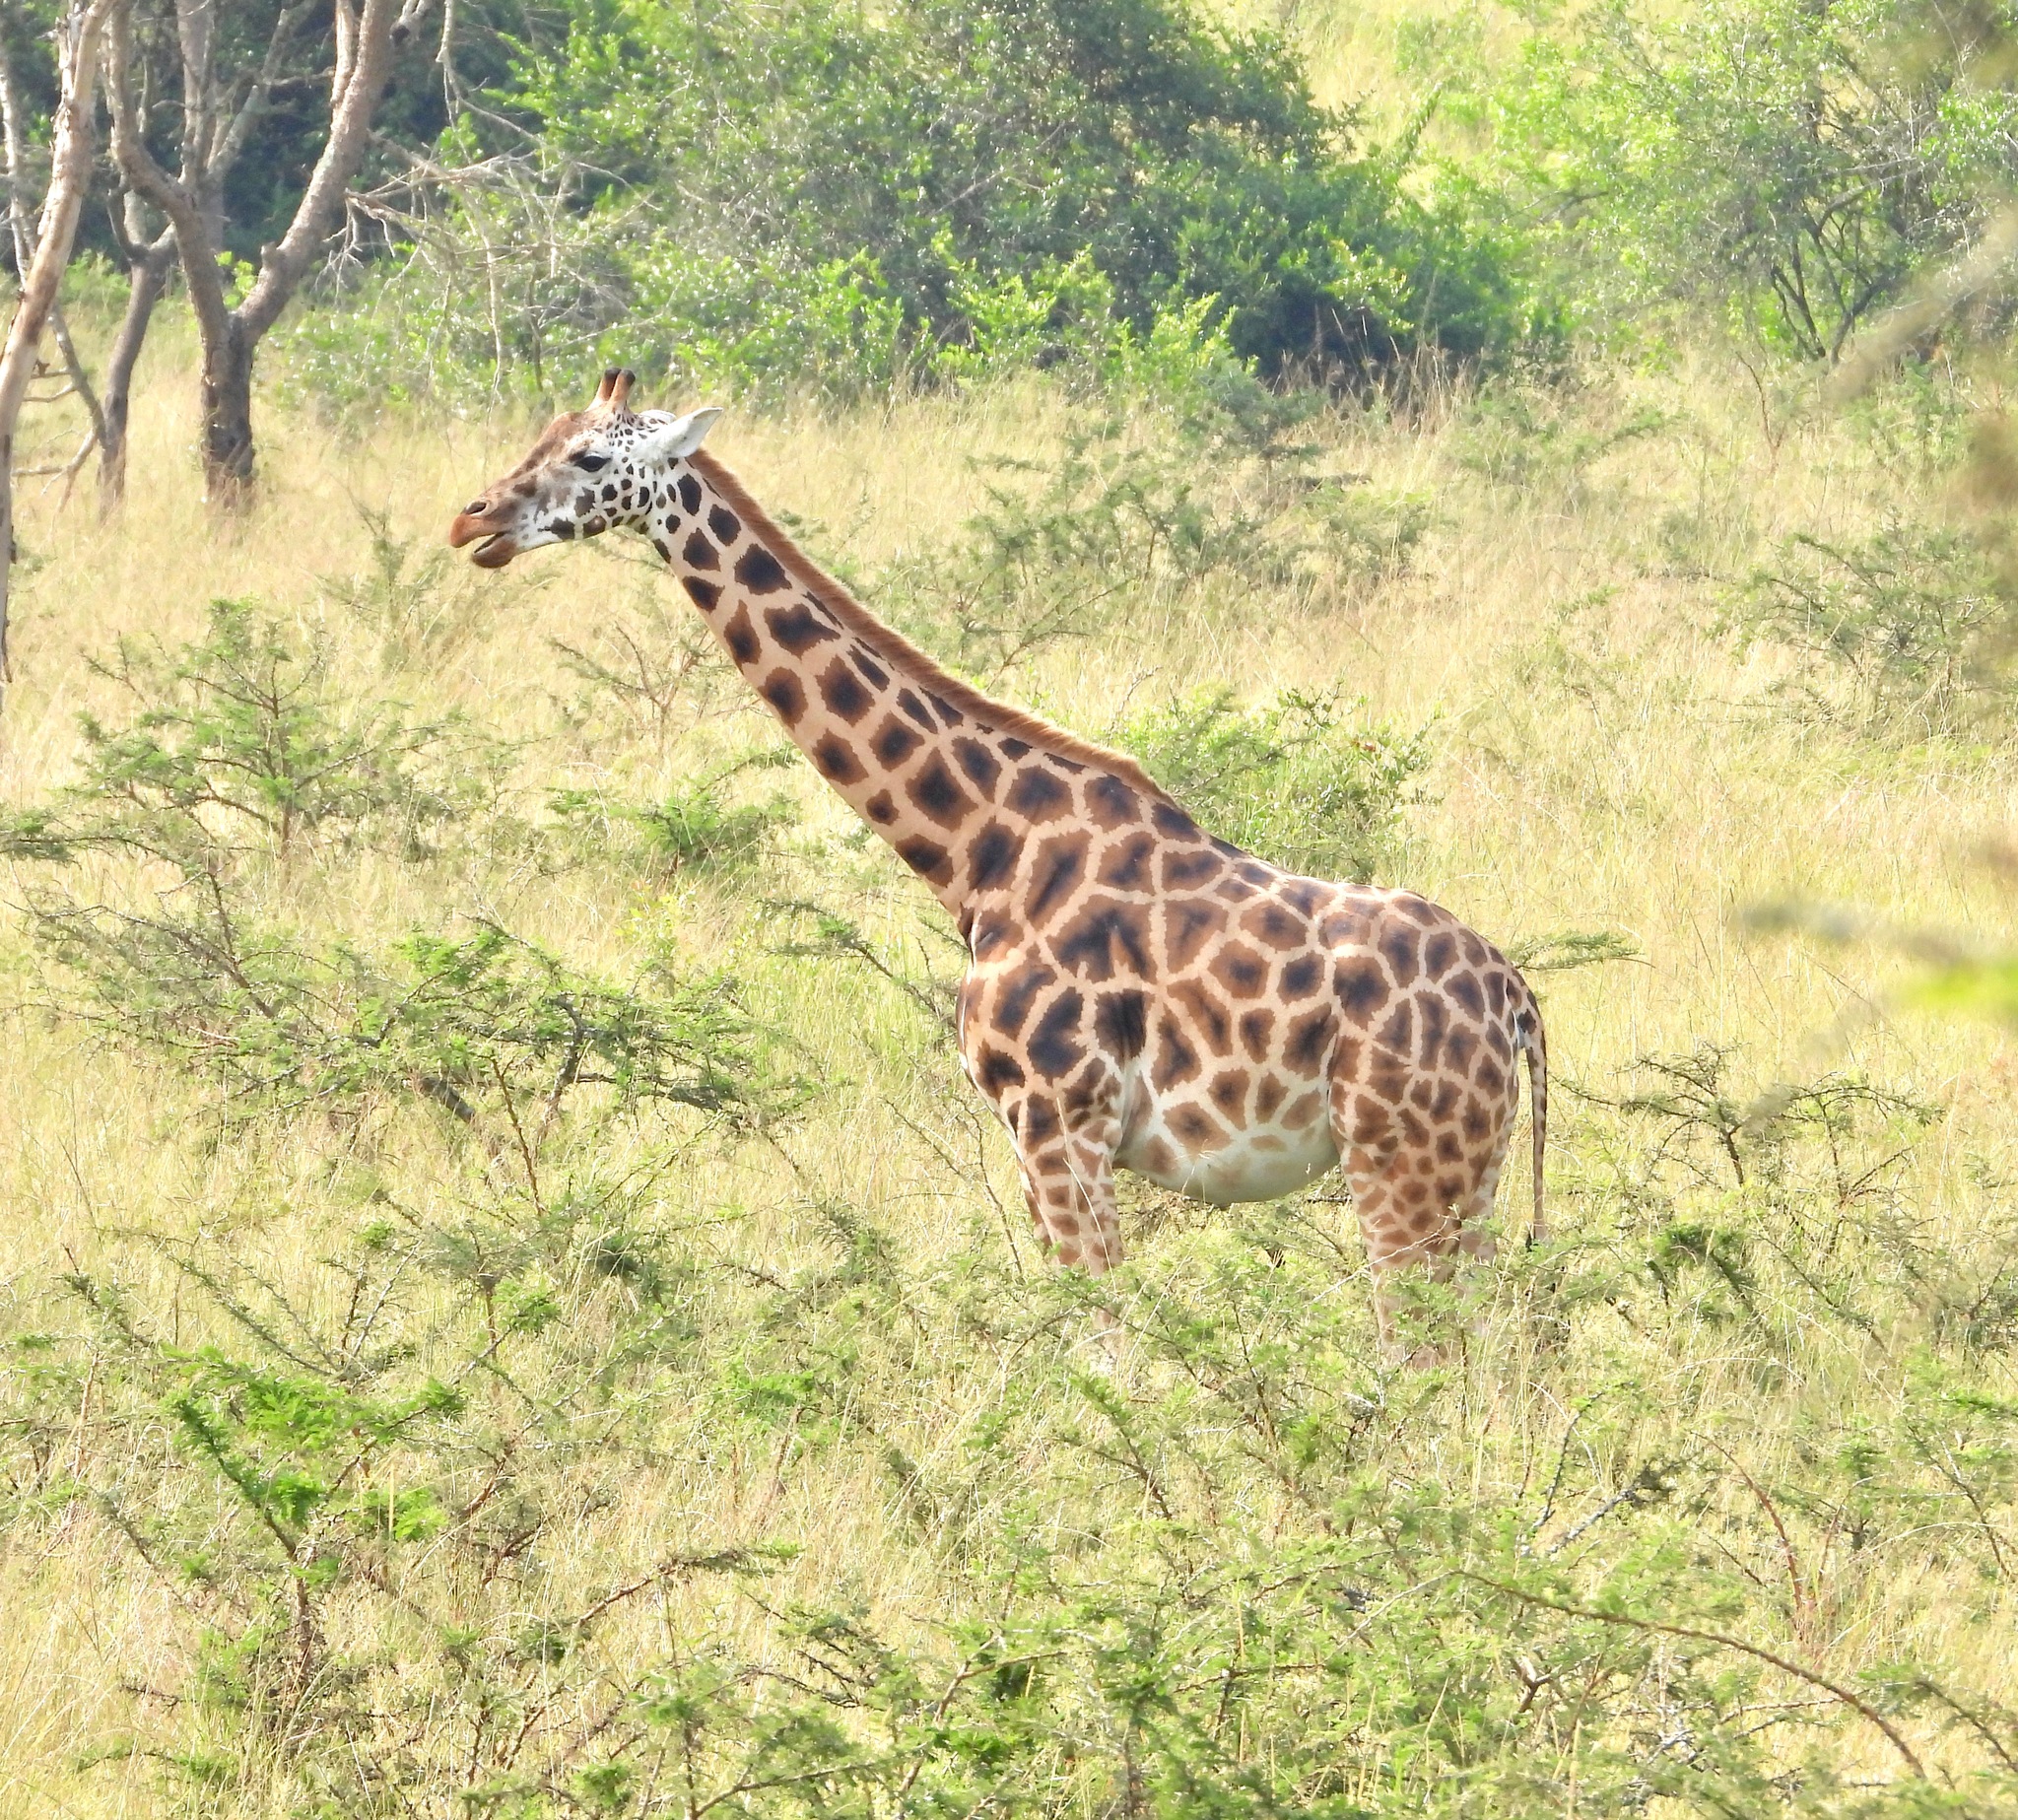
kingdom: Animalia
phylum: Chordata
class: Mammalia
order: Artiodactyla
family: Giraffidae
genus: Giraffa
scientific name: Giraffa camelopardalis
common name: Giraffe
